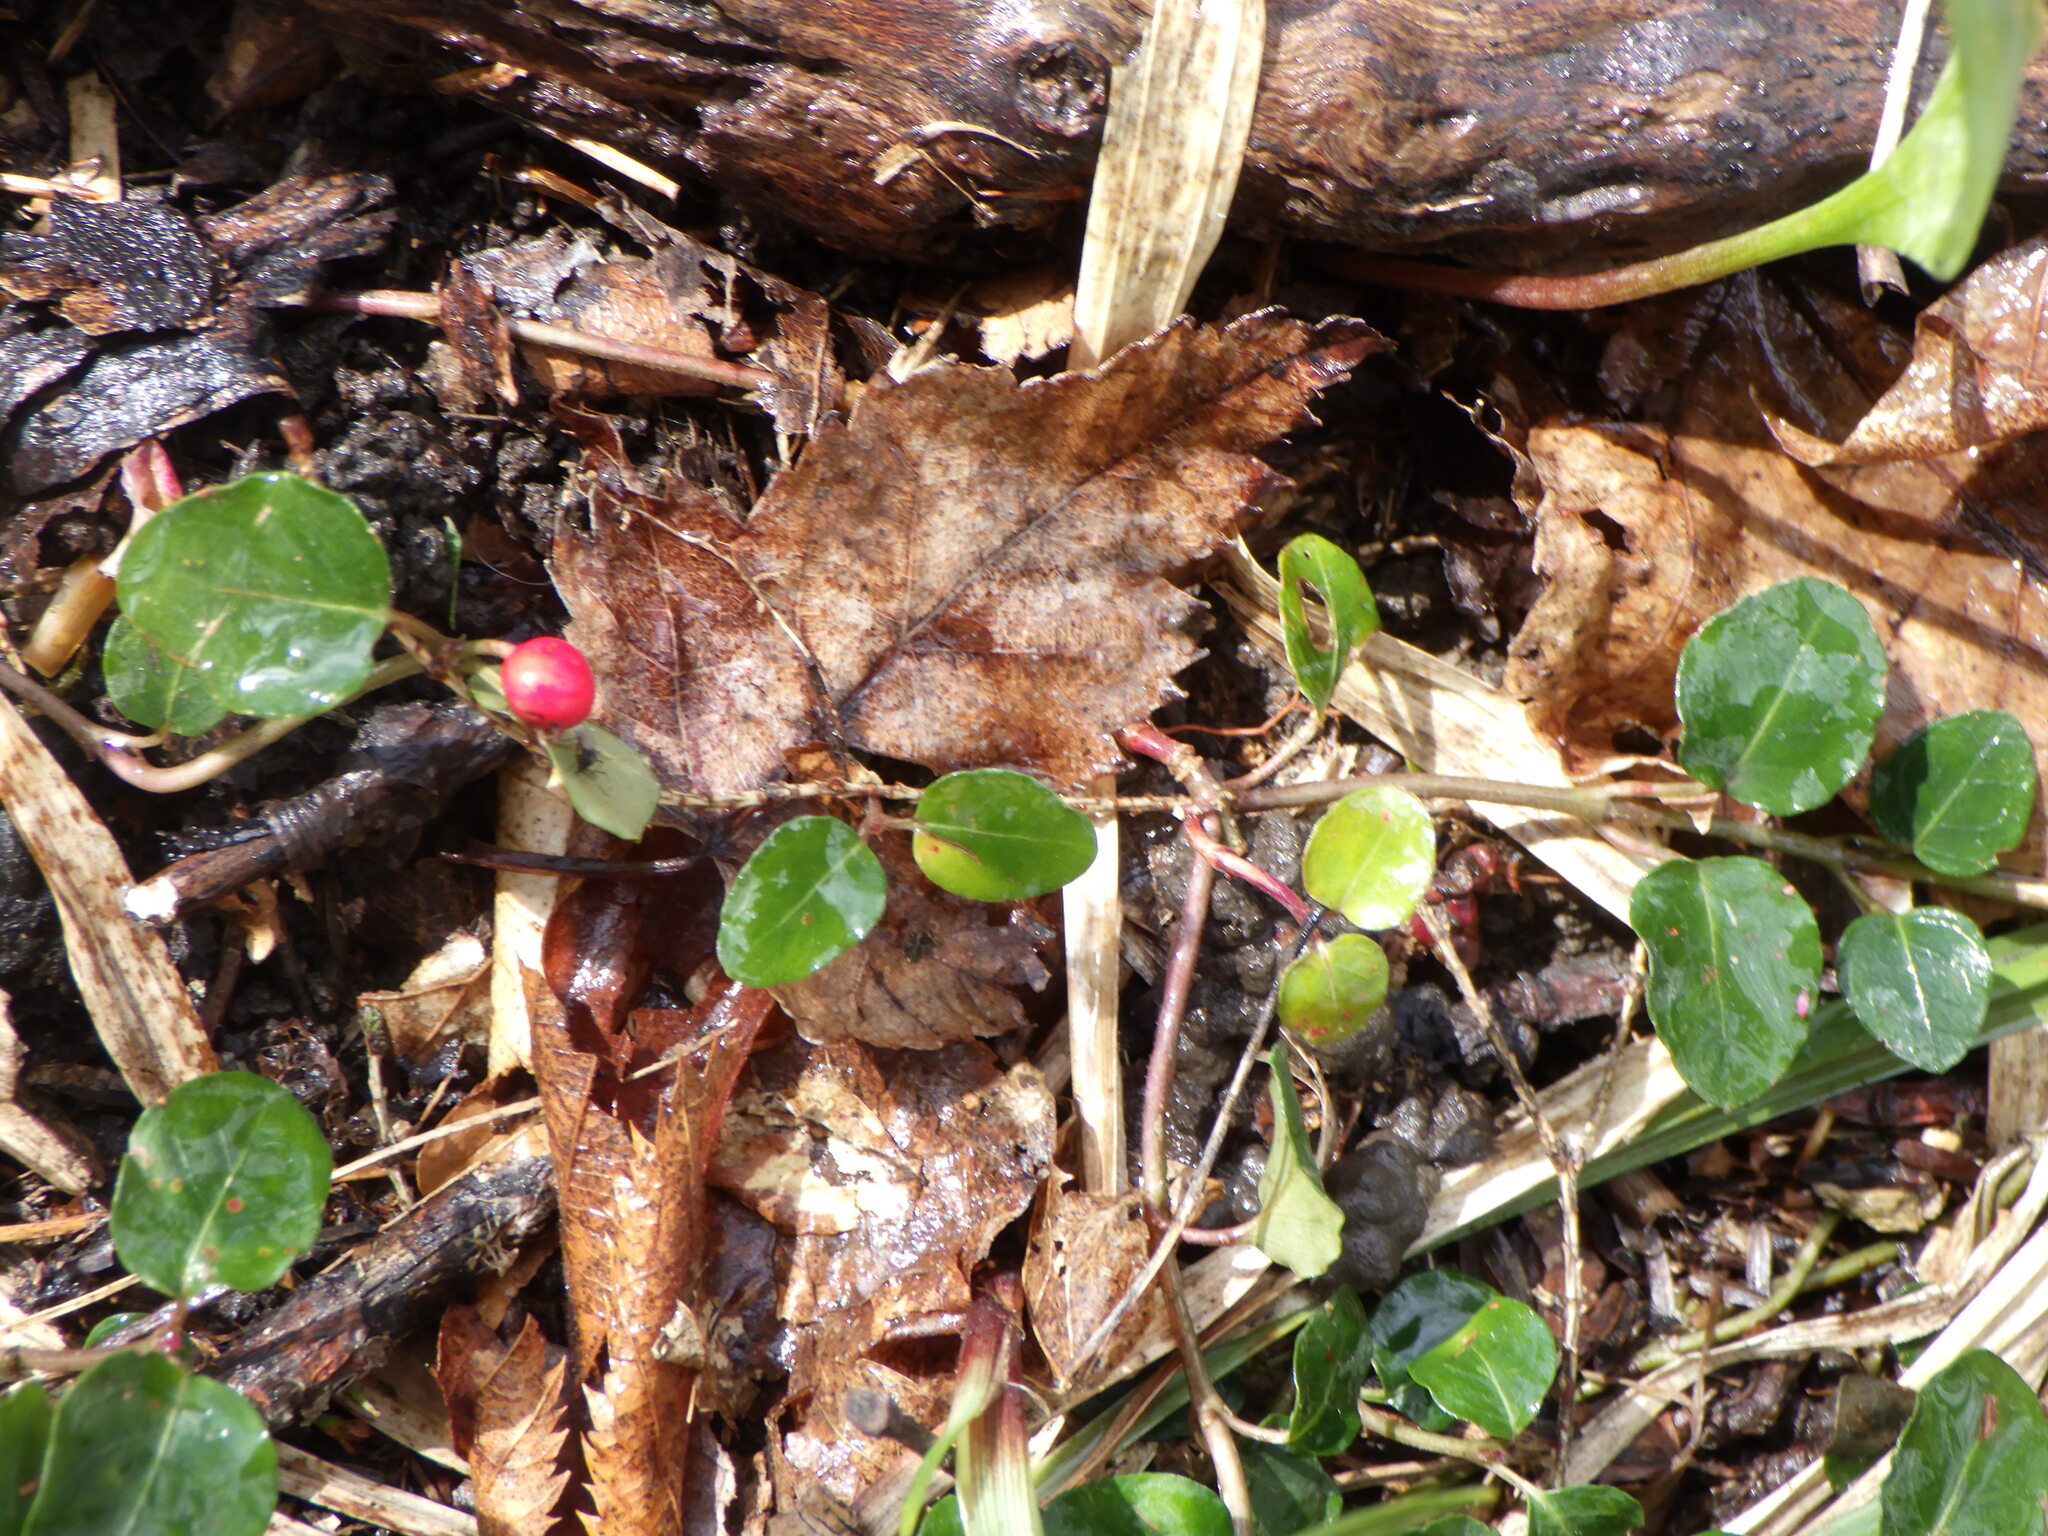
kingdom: Plantae
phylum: Tracheophyta
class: Magnoliopsida
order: Gentianales
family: Rubiaceae
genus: Mitchella
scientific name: Mitchella repens
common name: Partridge-berry
